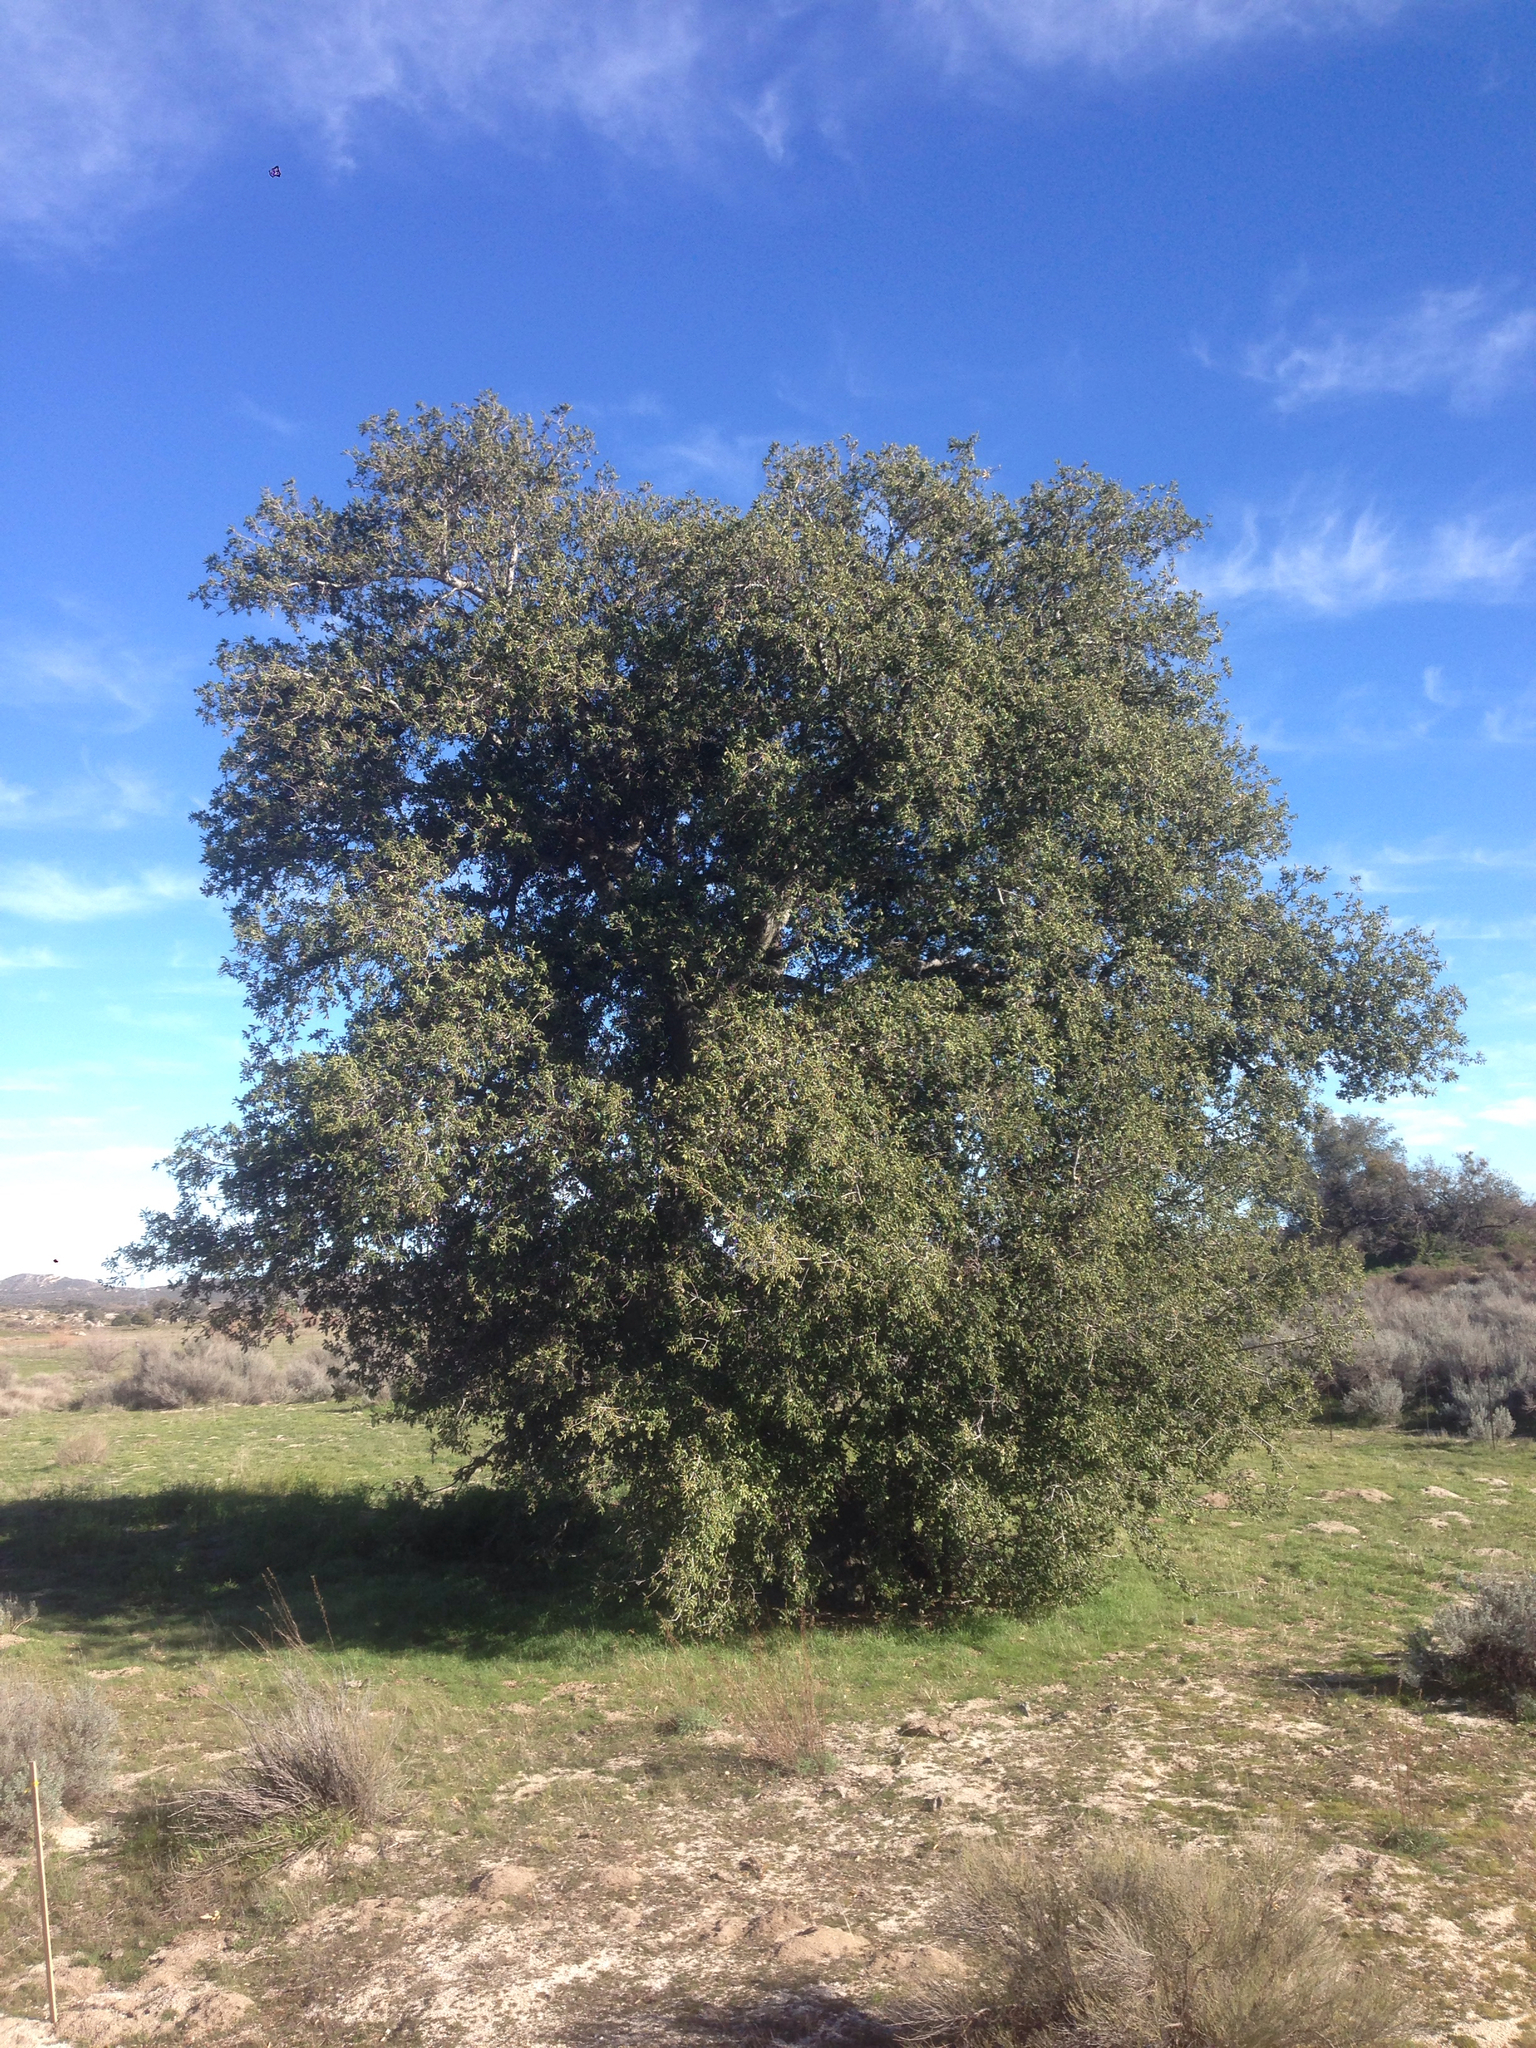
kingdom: Plantae
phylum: Tracheophyta
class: Magnoliopsida
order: Fagales
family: Fagaceae
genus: Quercus
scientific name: Quercus agrifolia
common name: California live oak
